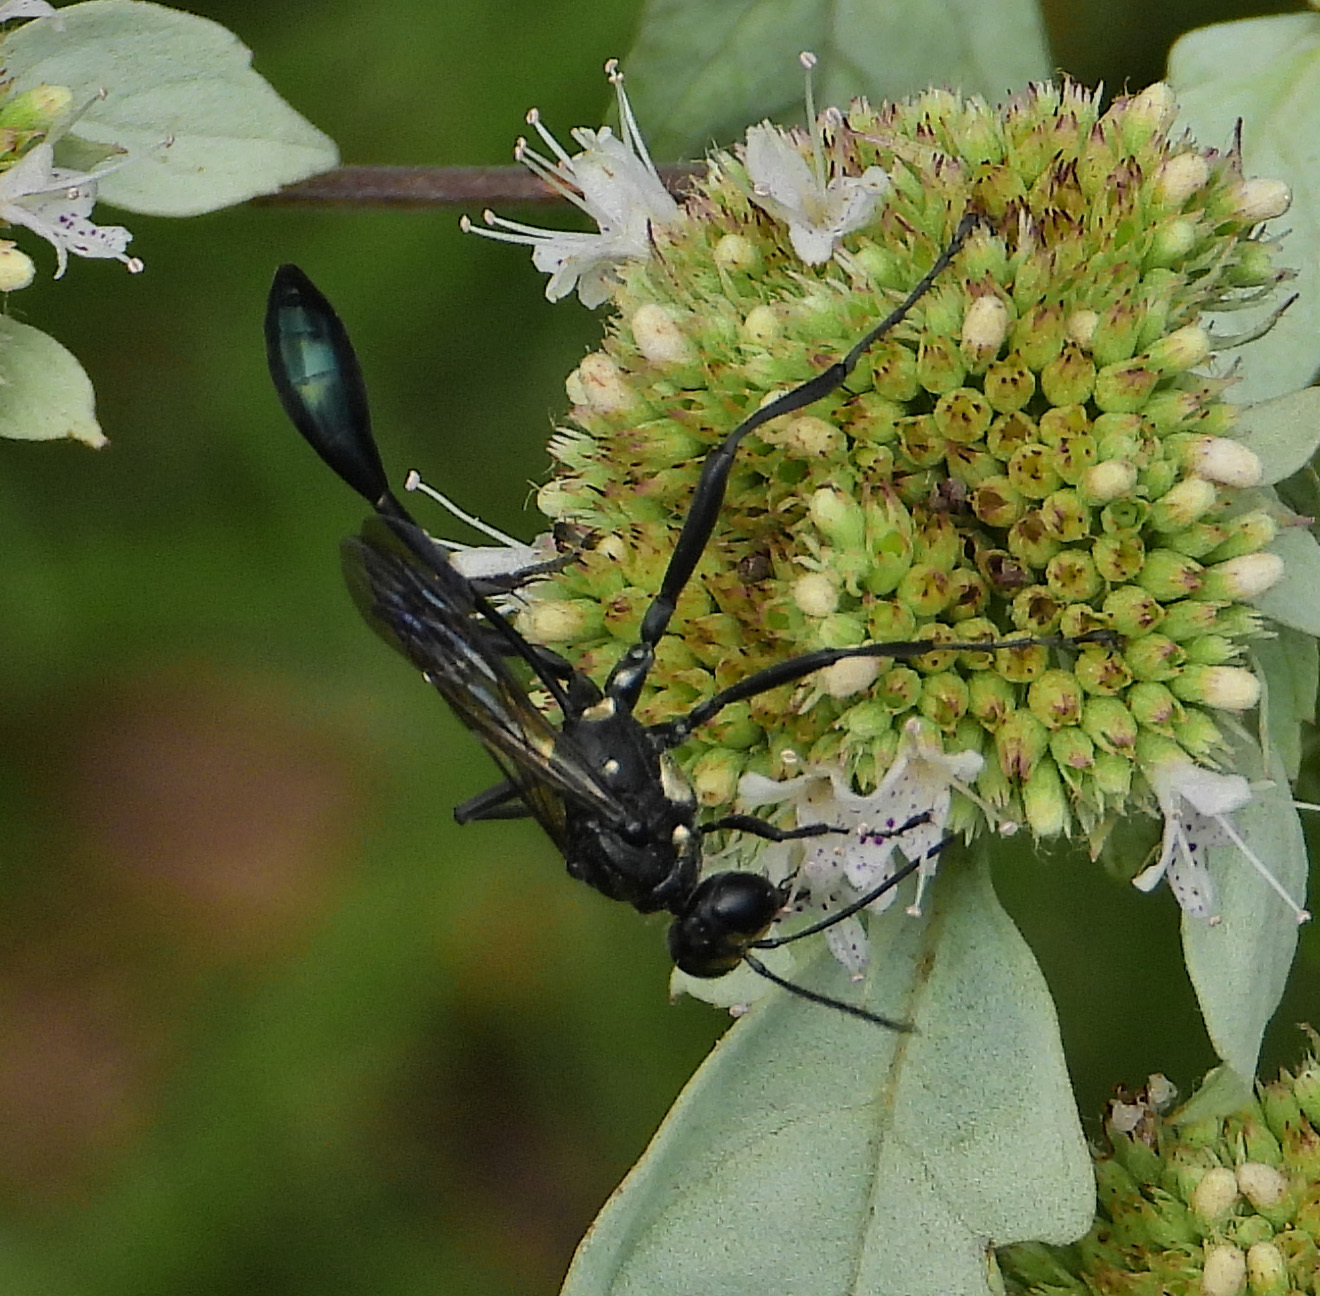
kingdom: Animalia
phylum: Arthropoda
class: Insecta
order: Hymenoptera
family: Sphecidae
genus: Eremnophila
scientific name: Eremnophila aureonotata
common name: Gold-marked thread-waisted wasp
